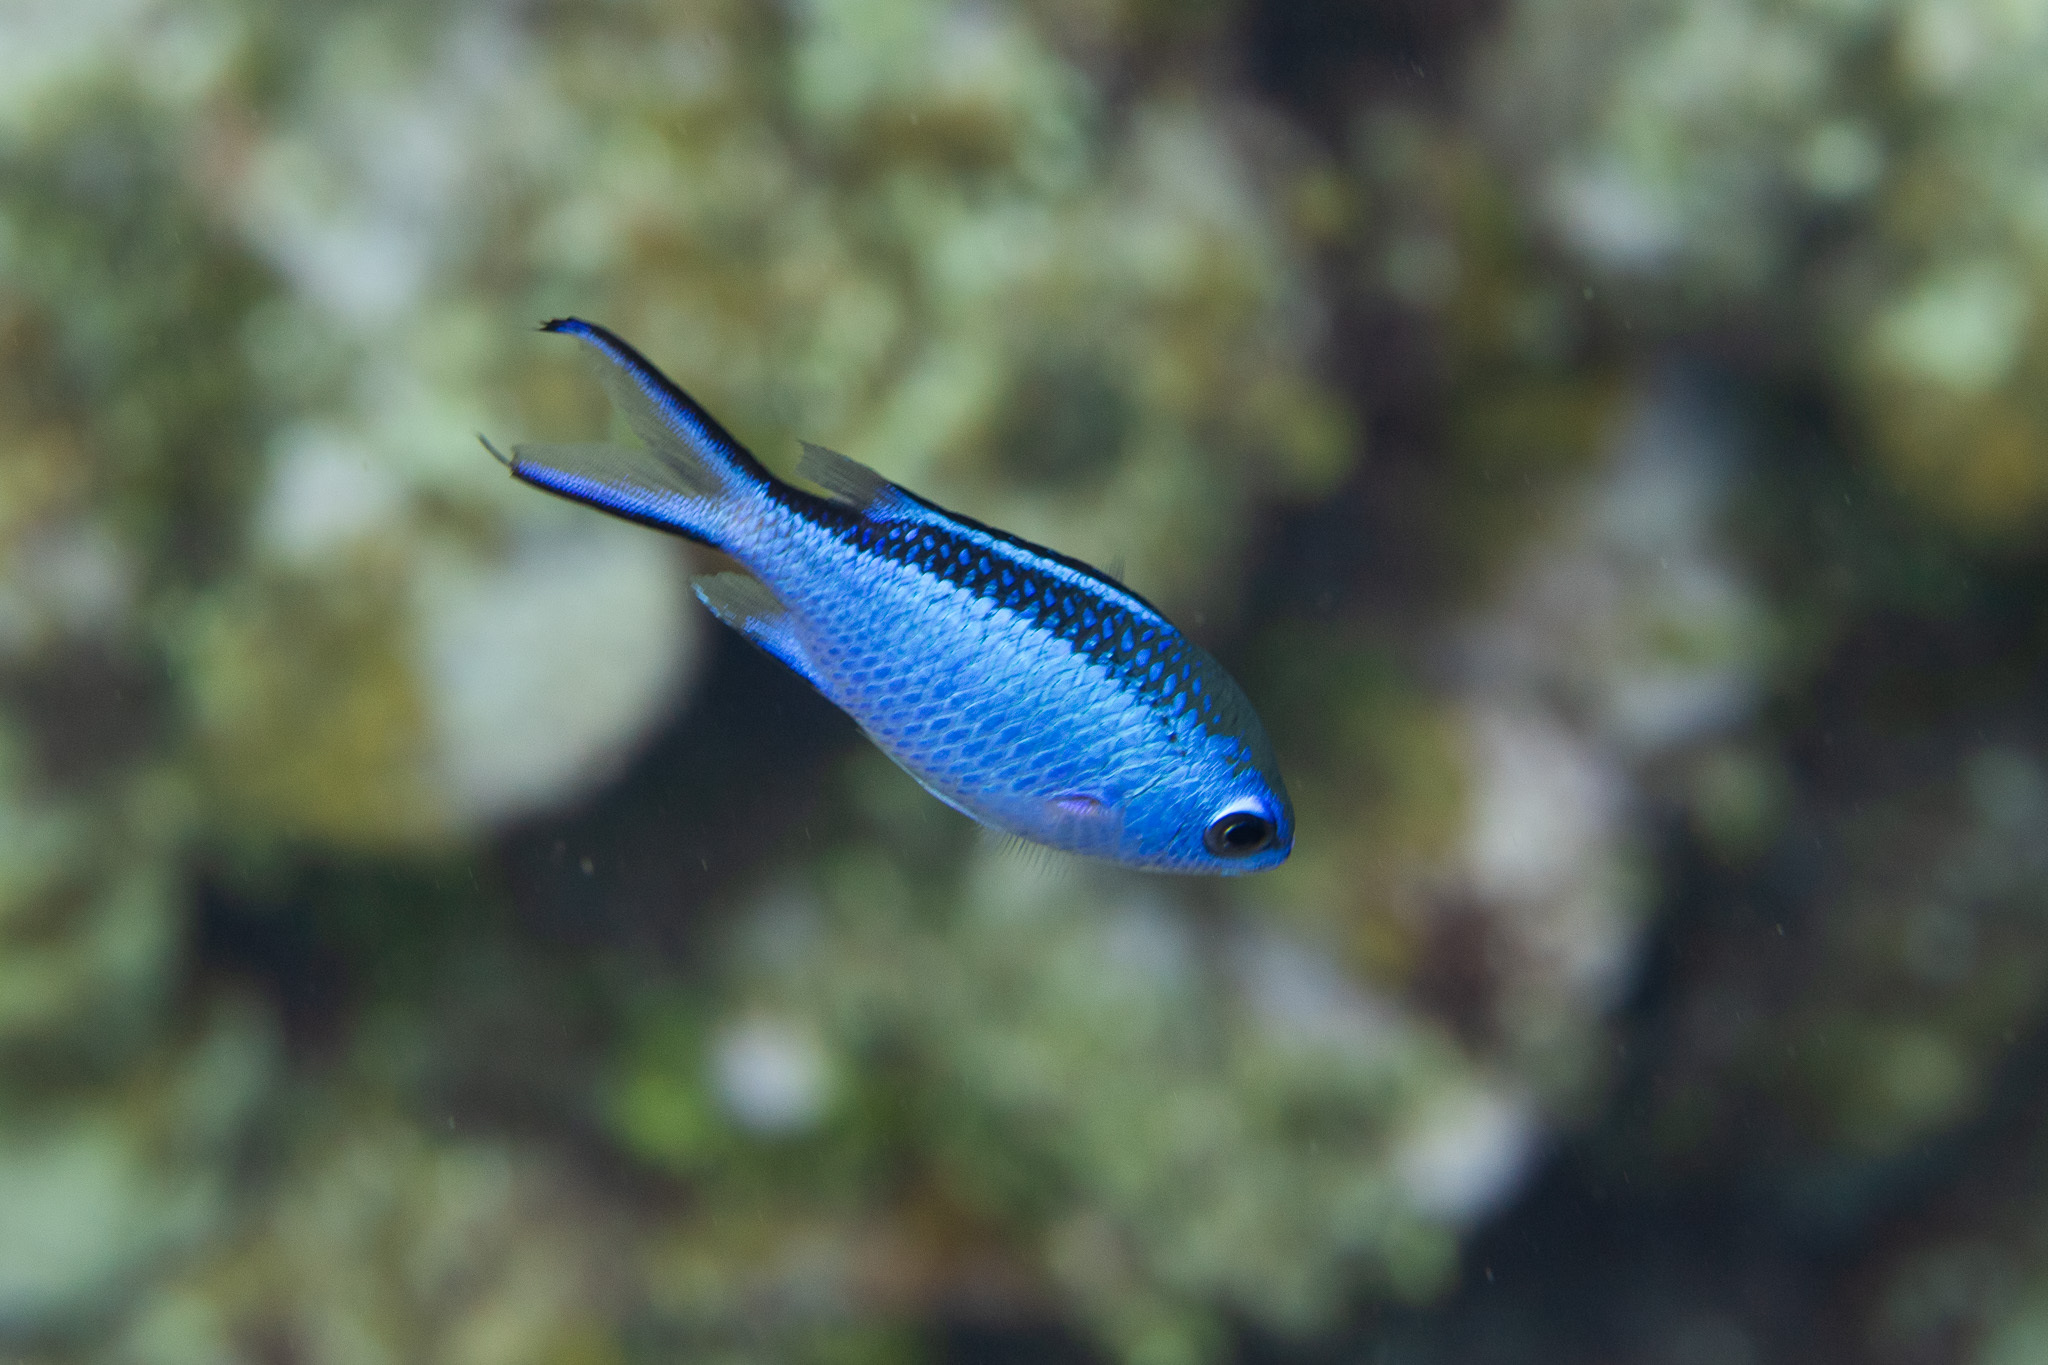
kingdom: Animalia
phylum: Chordata
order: Perciformes
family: Pomacentridae
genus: Chromis
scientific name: Chromis cyanea
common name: Blue chromis
